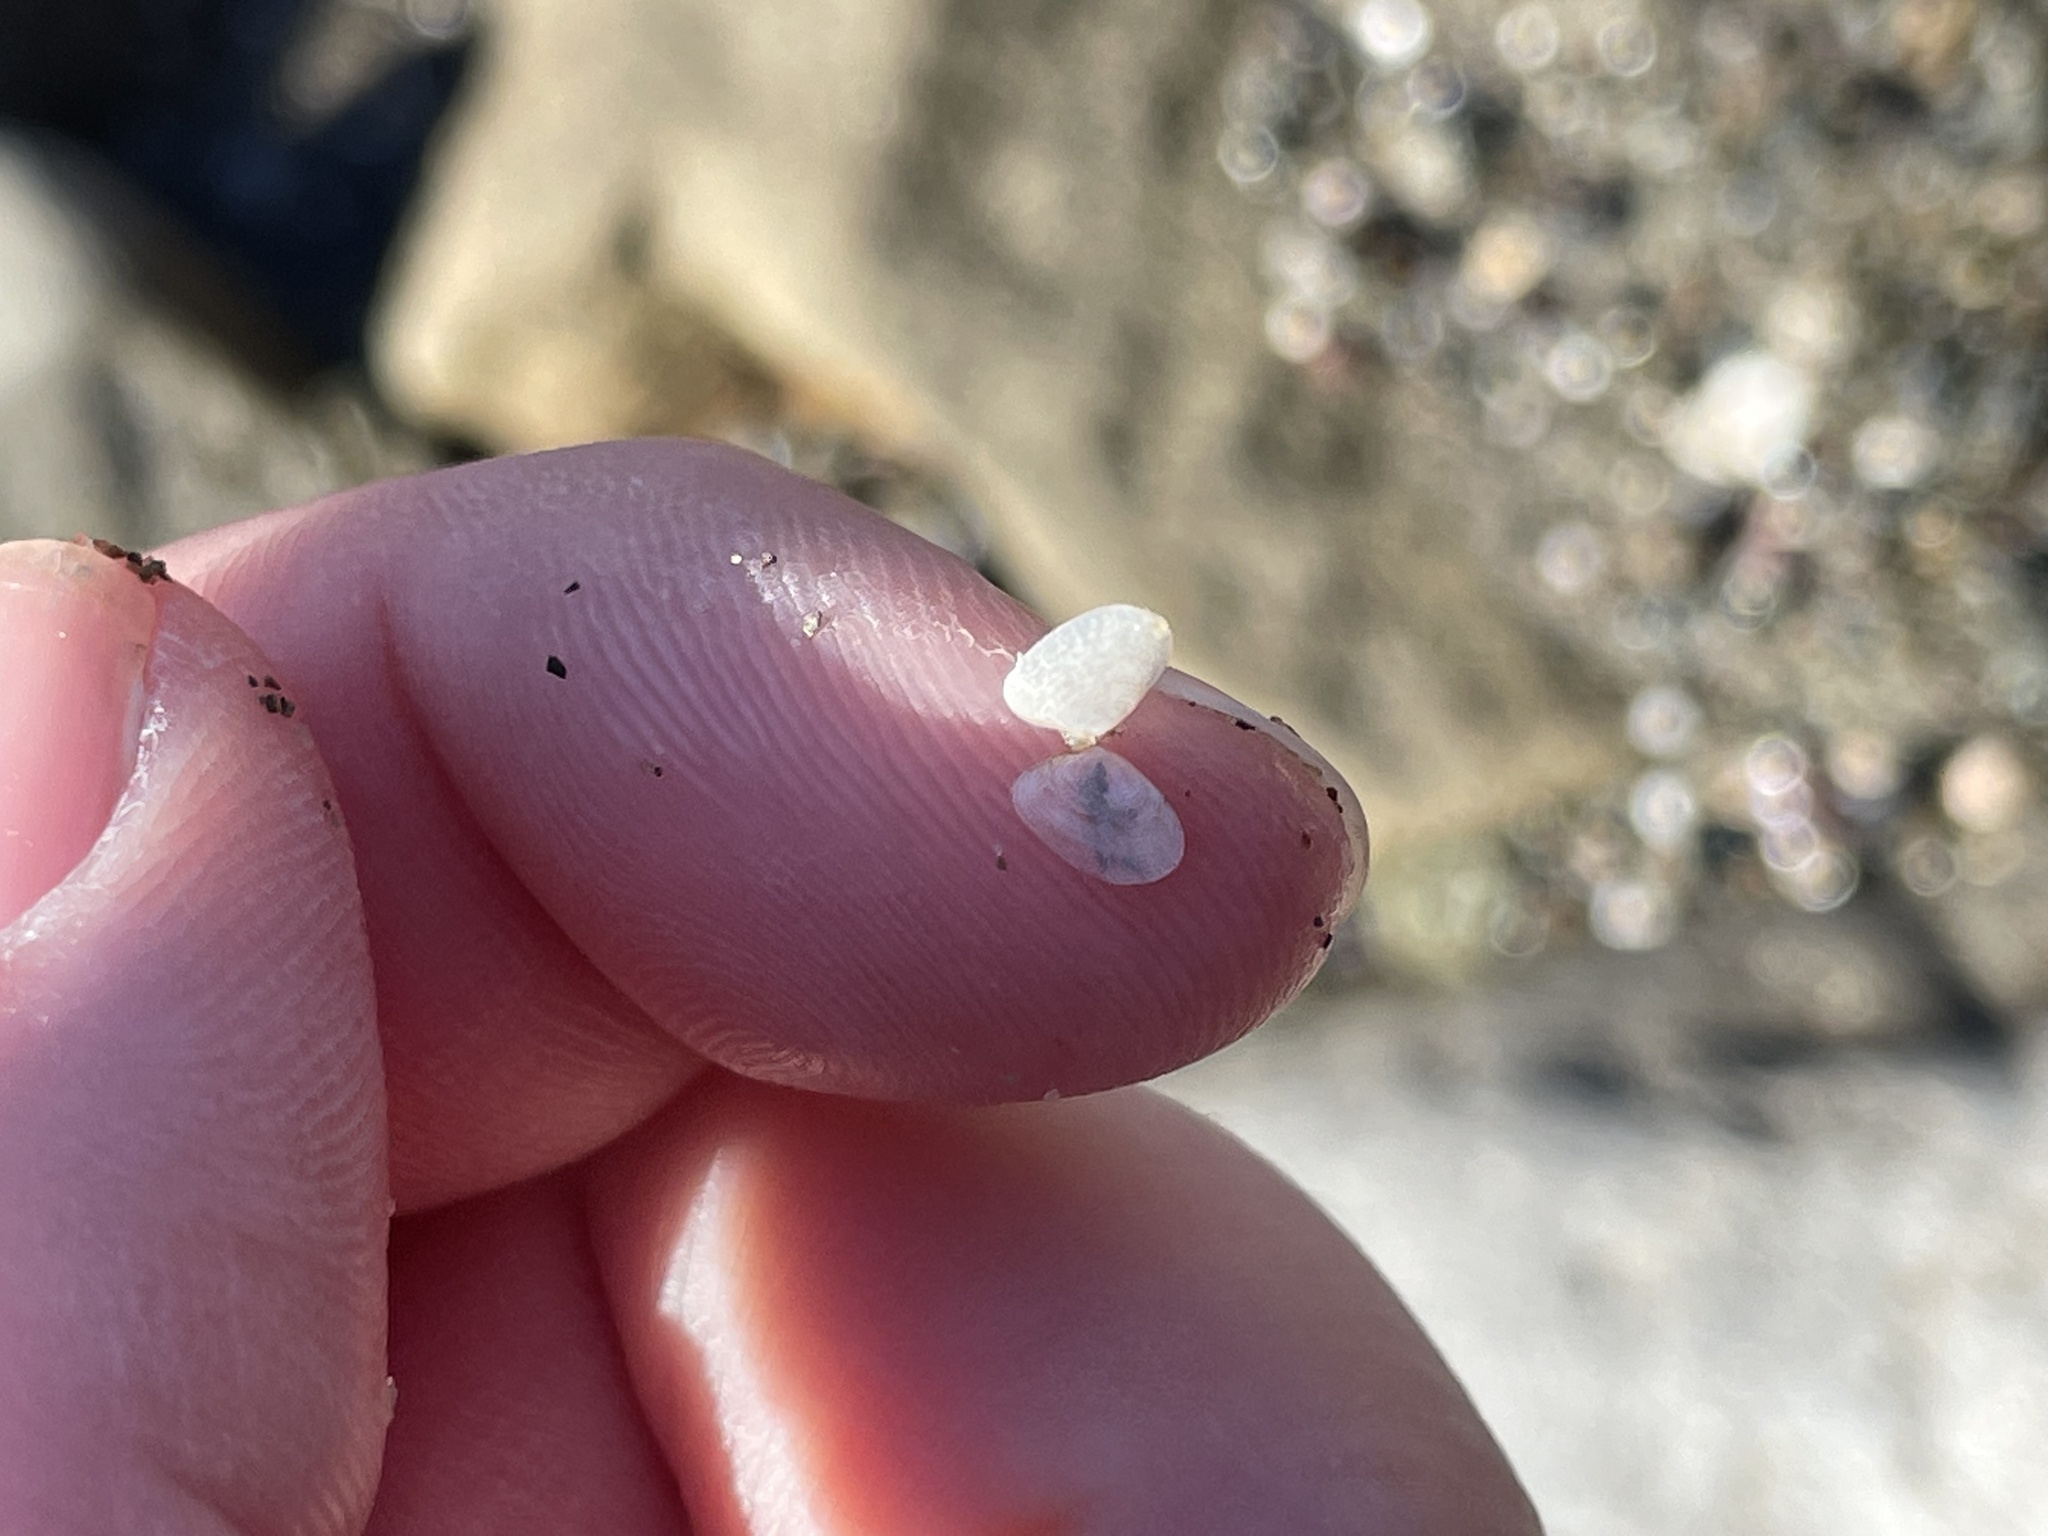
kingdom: Animalia
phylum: Mollusca
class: Bivalvia
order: Cardiida
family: Tellinidae
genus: Ameritella
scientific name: Ameritella agilis
